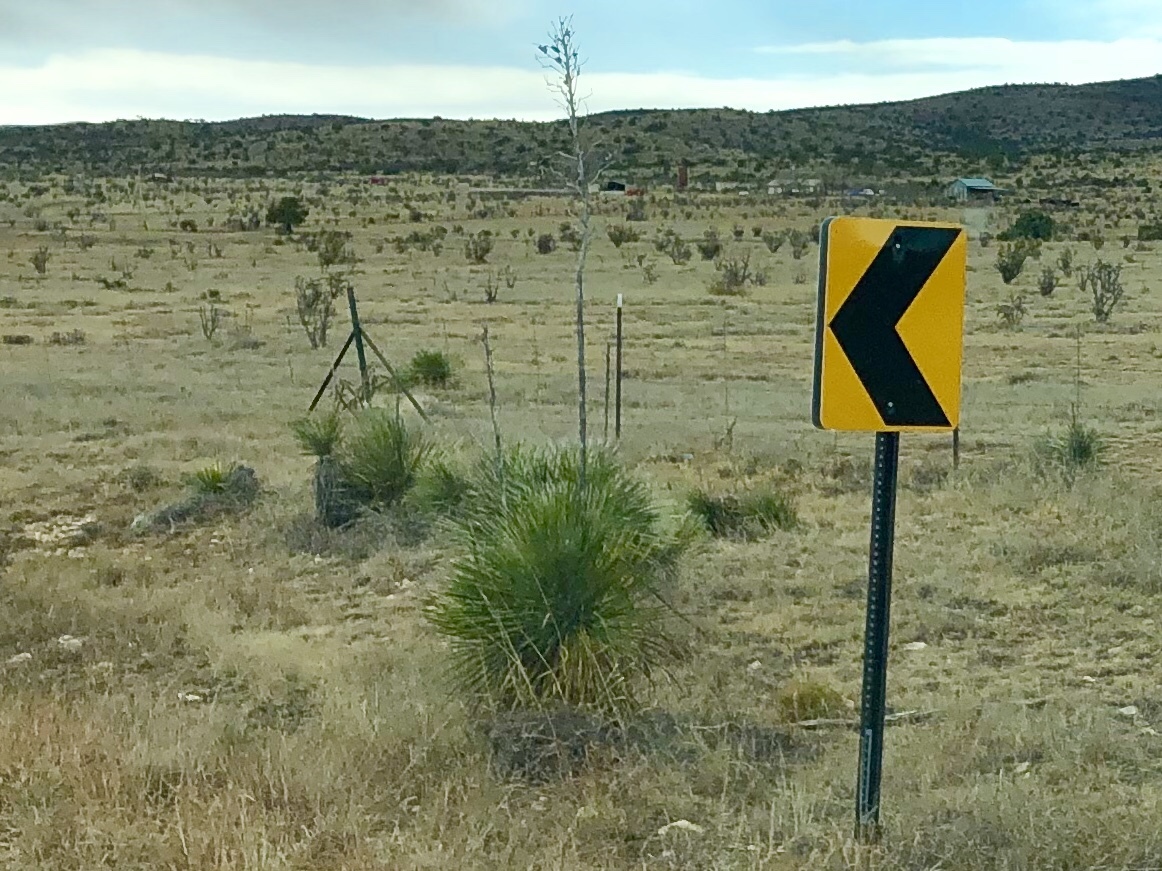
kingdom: Plantae
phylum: Tracheophyta
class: Liliopsida
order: Asparagales
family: Asparagaceae
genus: Yucca
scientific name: Yucca elata
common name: Palmella
